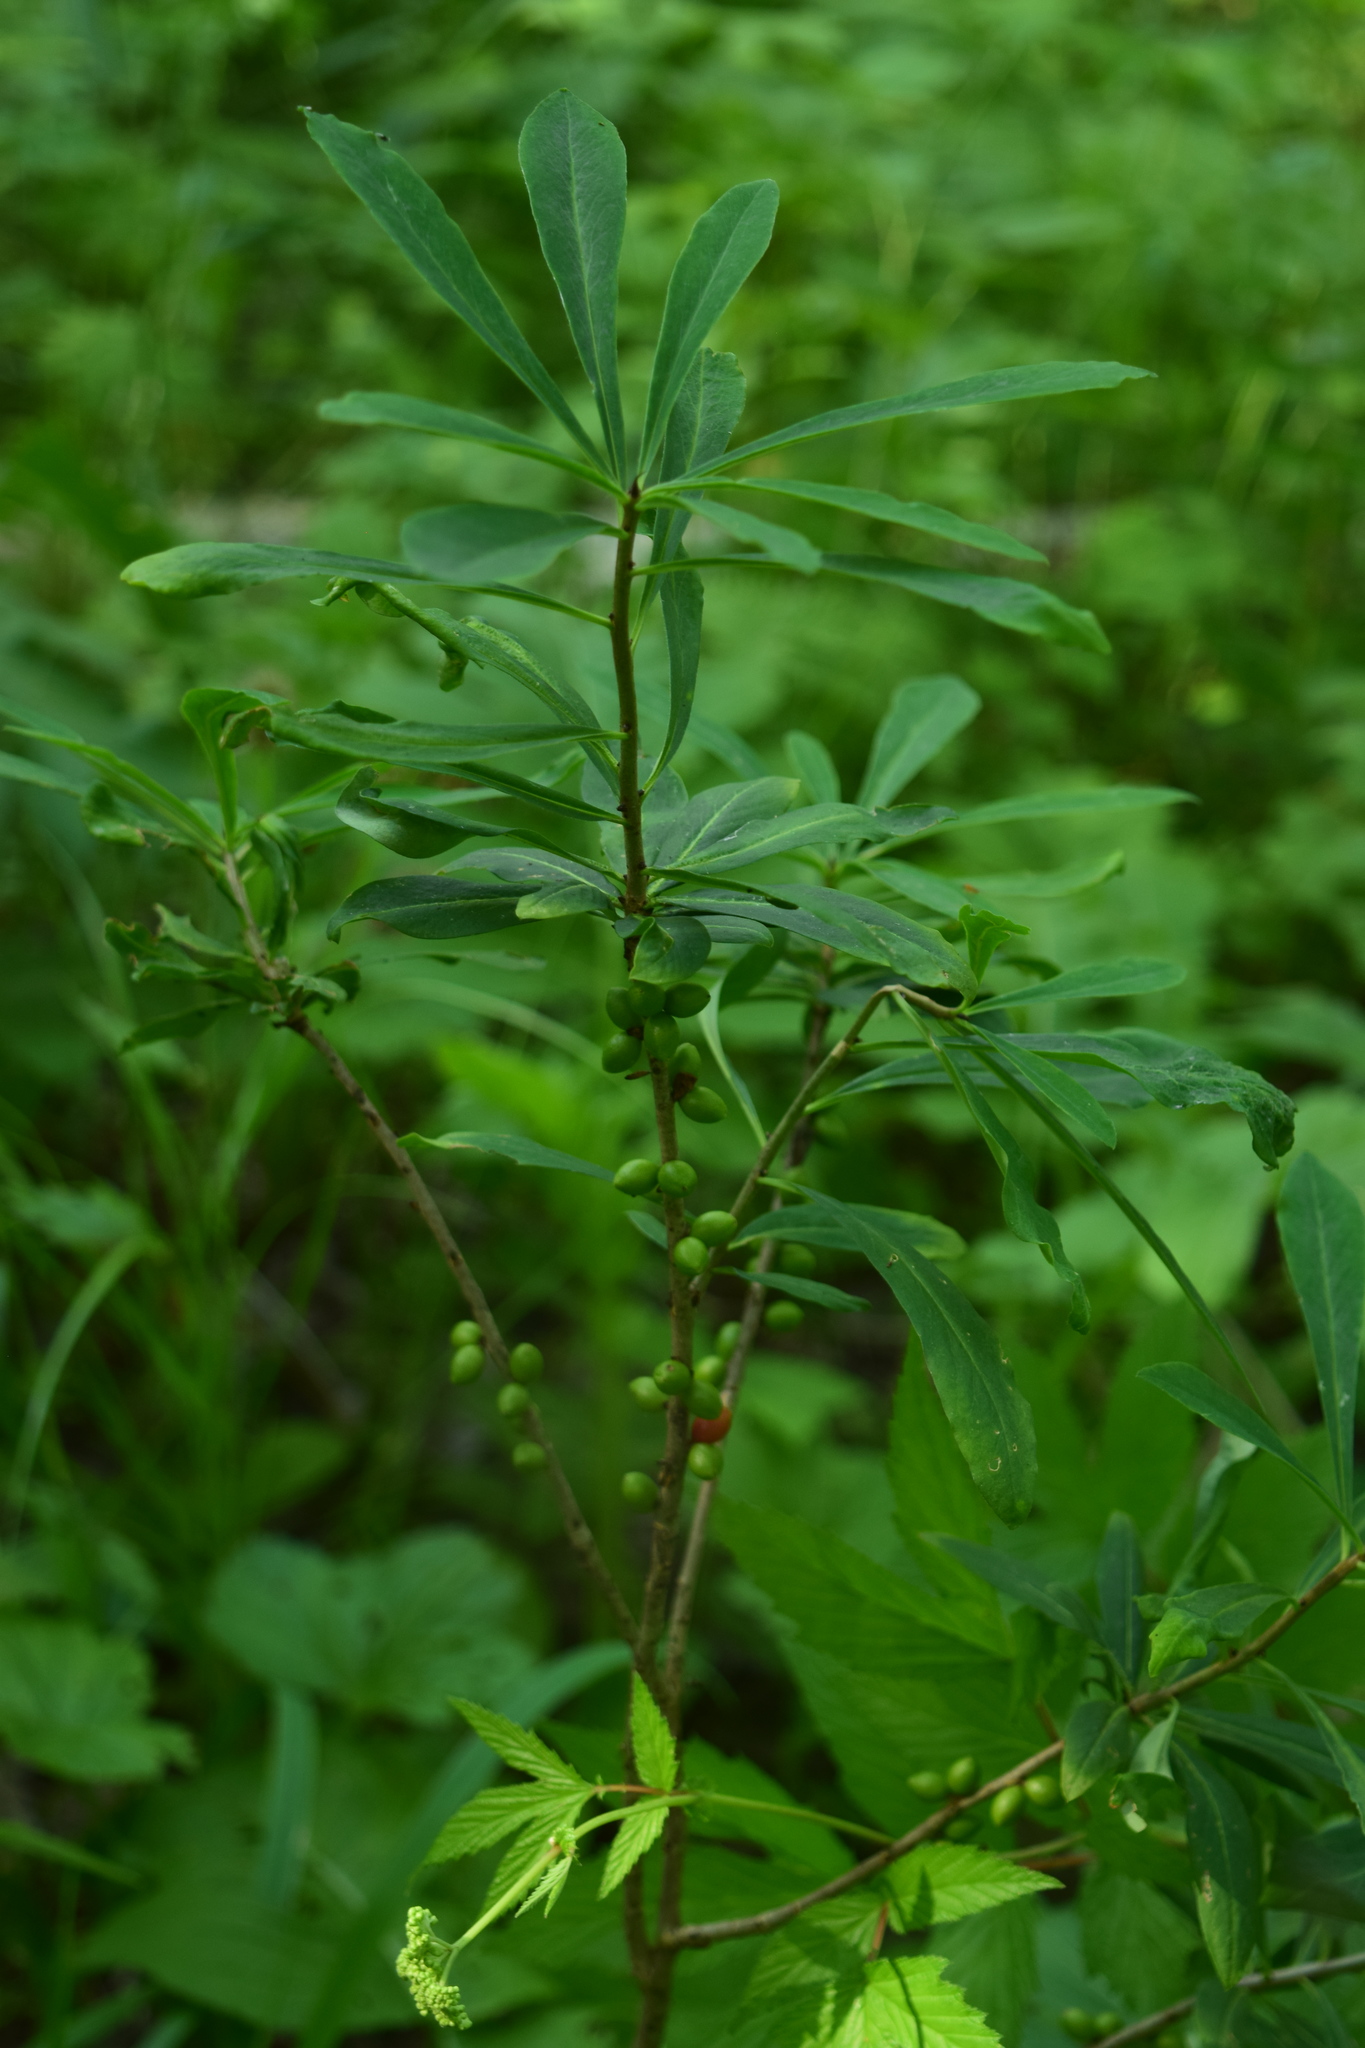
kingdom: Plantae
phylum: Tracheophyta
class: Magnoliopsida
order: Malvales
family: Thymelaeaceae
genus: Daphne
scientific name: Daphne mezereum
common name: Mezereon
